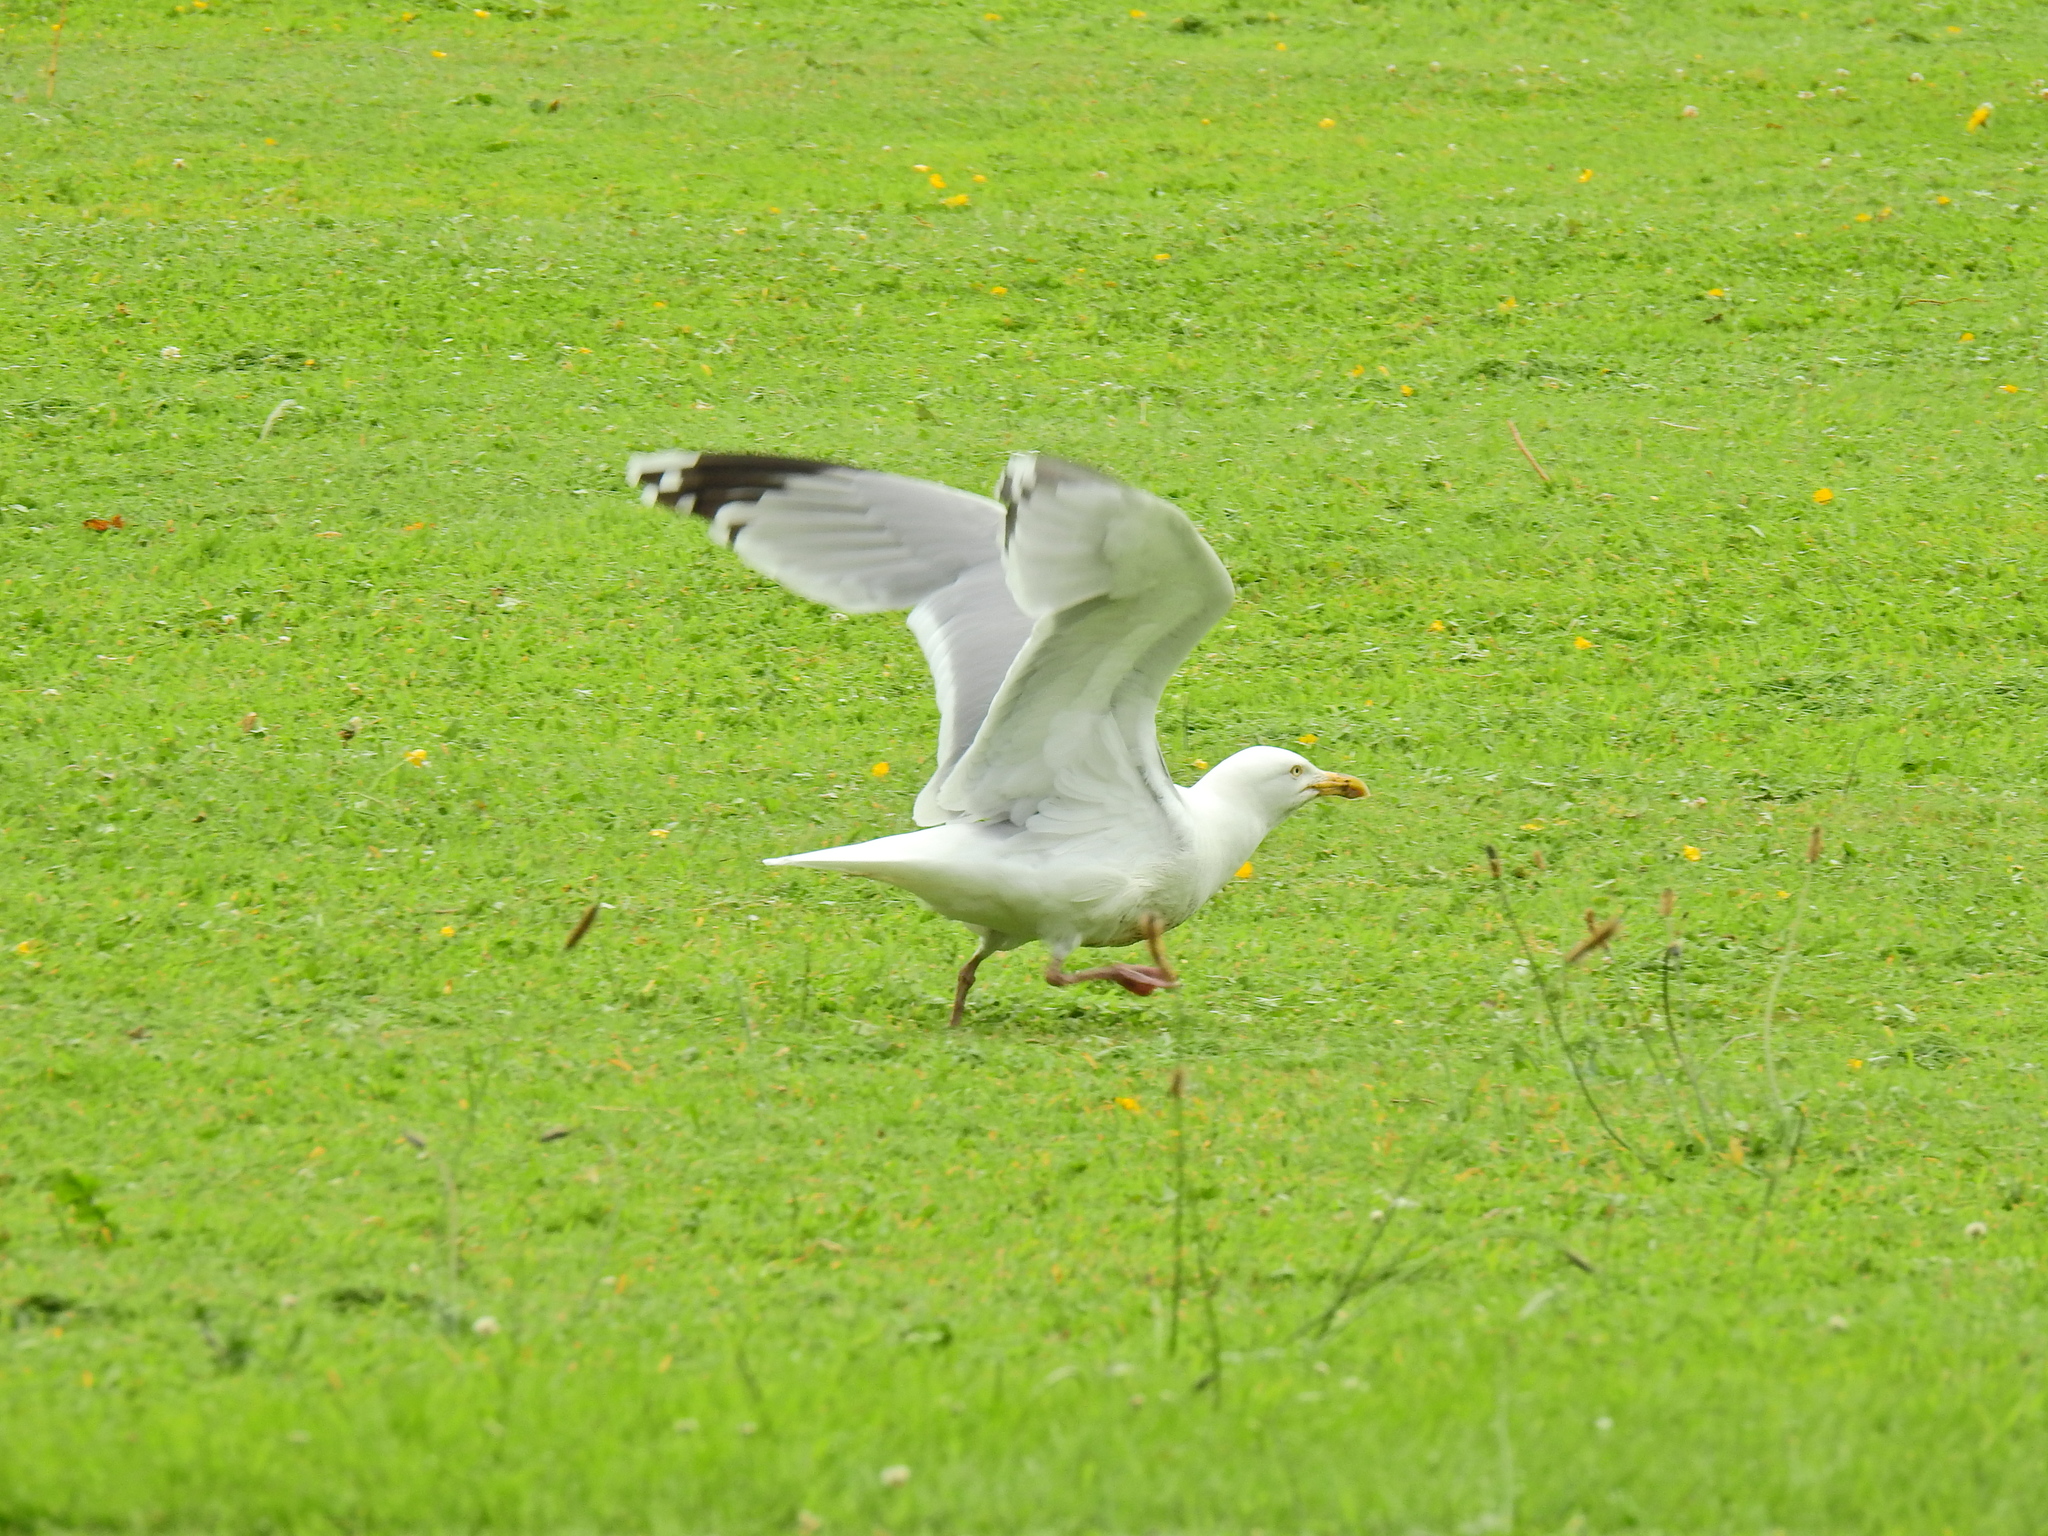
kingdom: Animalia
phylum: Chordata
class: Aves
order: Charadriiformes
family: Laridae
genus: Larus
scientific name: Larus argentatus
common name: Herring gull
